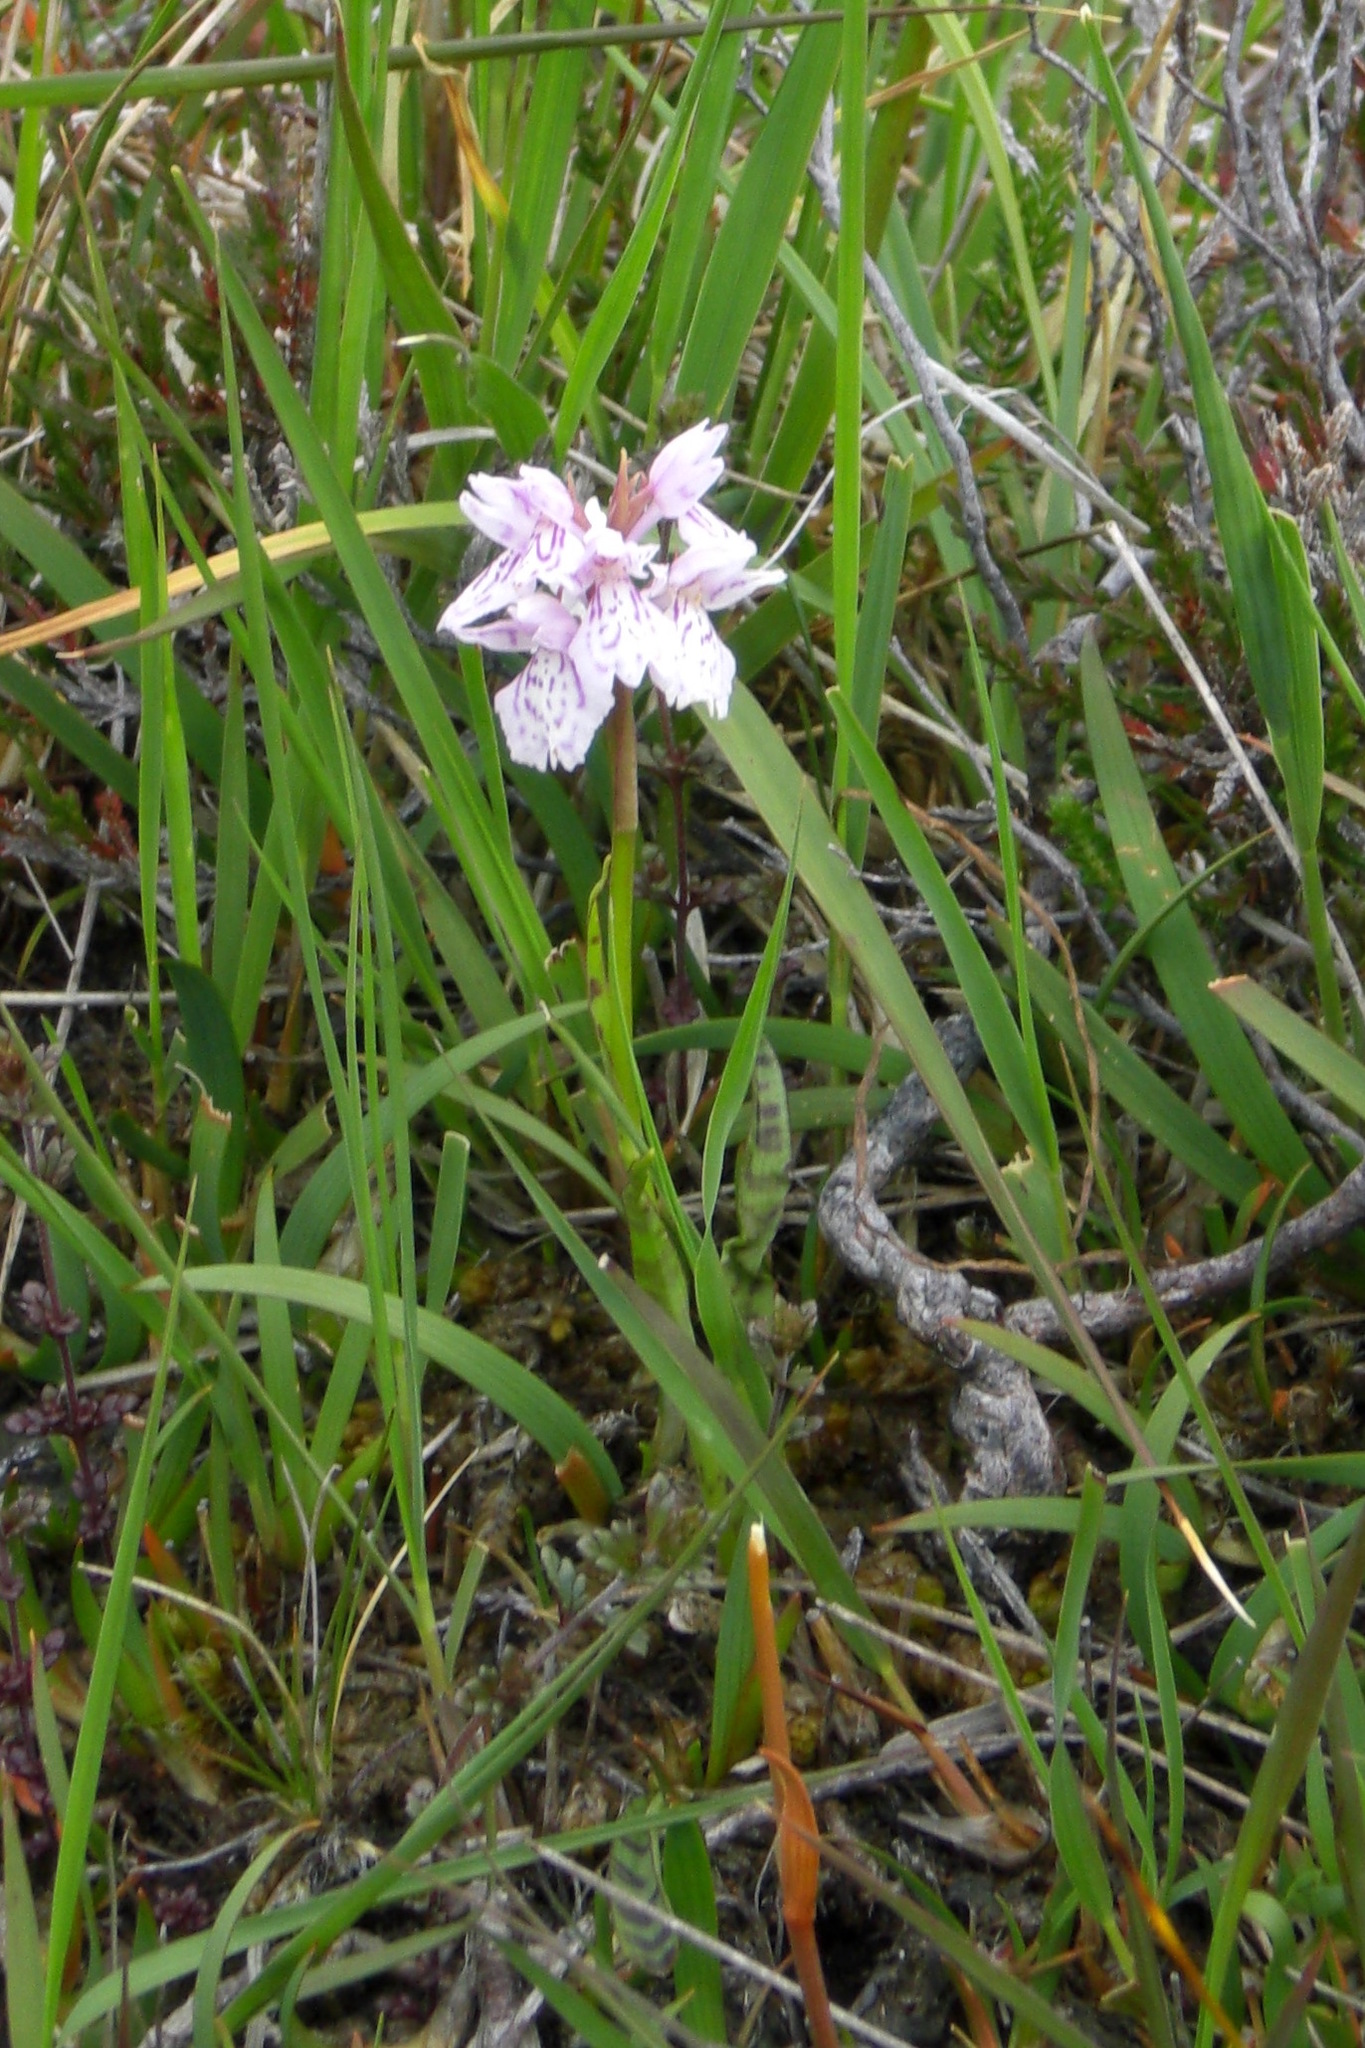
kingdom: Plantae
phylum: Tracheophyta
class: Liliopsida
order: Asparagales
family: Orchidaceae
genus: Dactylorhiza
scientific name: Dactylorhiza maculata
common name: Heath spotted-orchid
